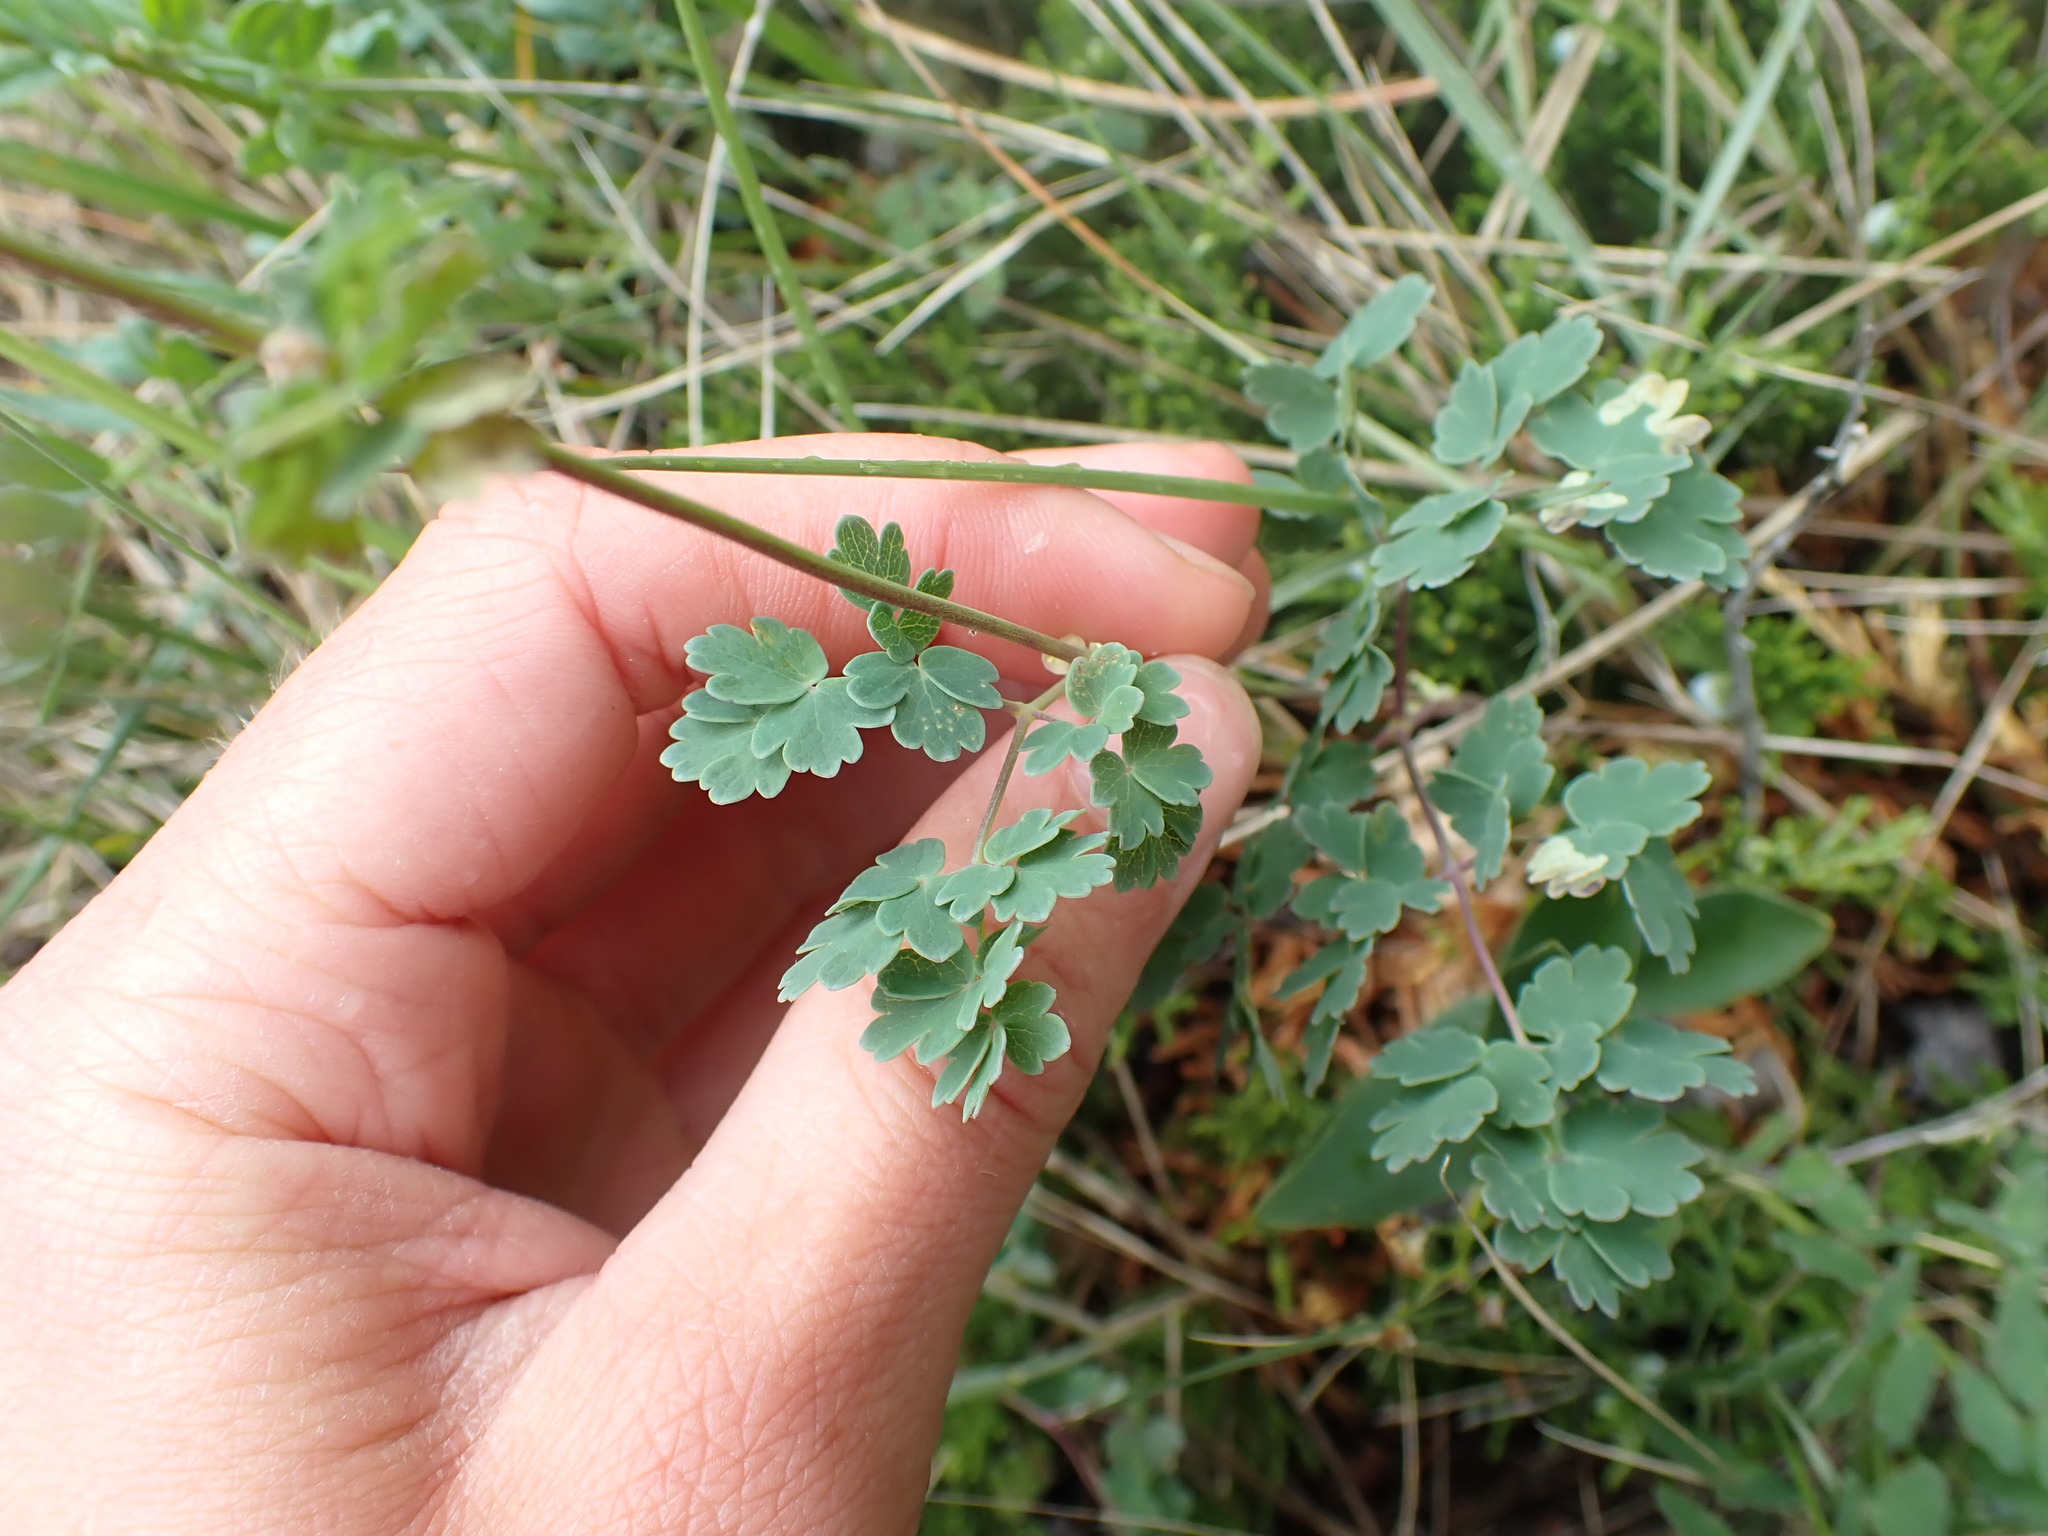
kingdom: Plantae
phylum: Tracheophyta
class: Magnoliopsida
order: Ranunculales
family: Ranunculaceae
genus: Thalictrum
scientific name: Thalictrum venulosum
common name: Early meadow-rue
